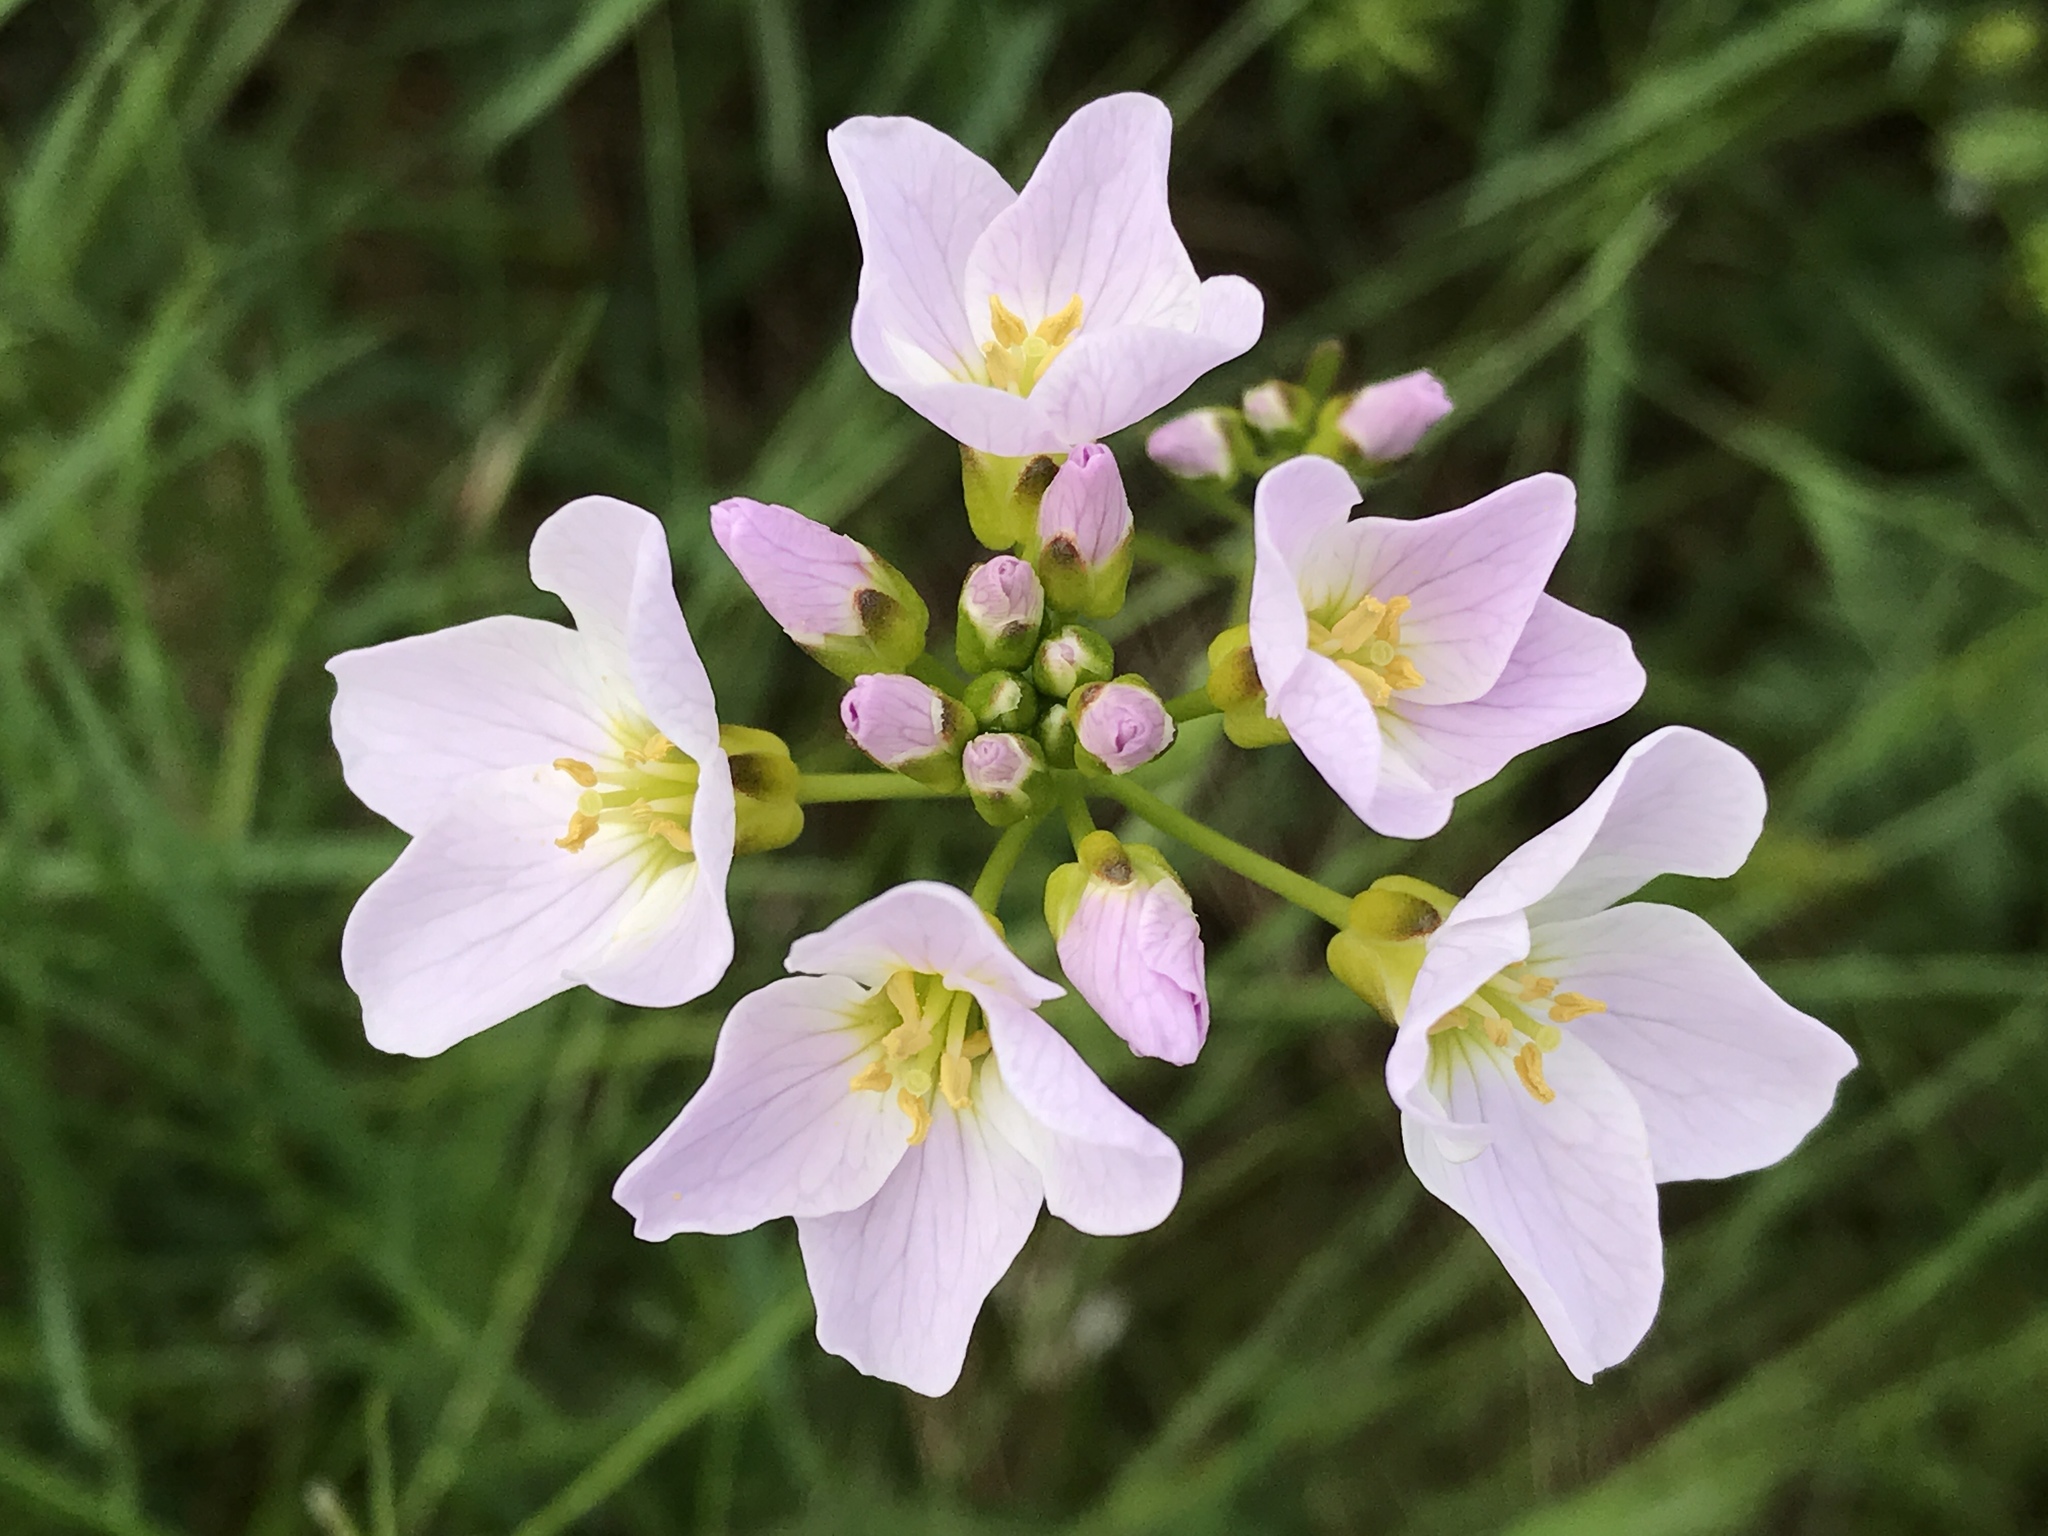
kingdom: Plantae
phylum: Tracheophyta
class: Magnoliopsida
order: Brassicales
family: Brassicaceae
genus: Cardamine
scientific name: Cardamine nymanii
